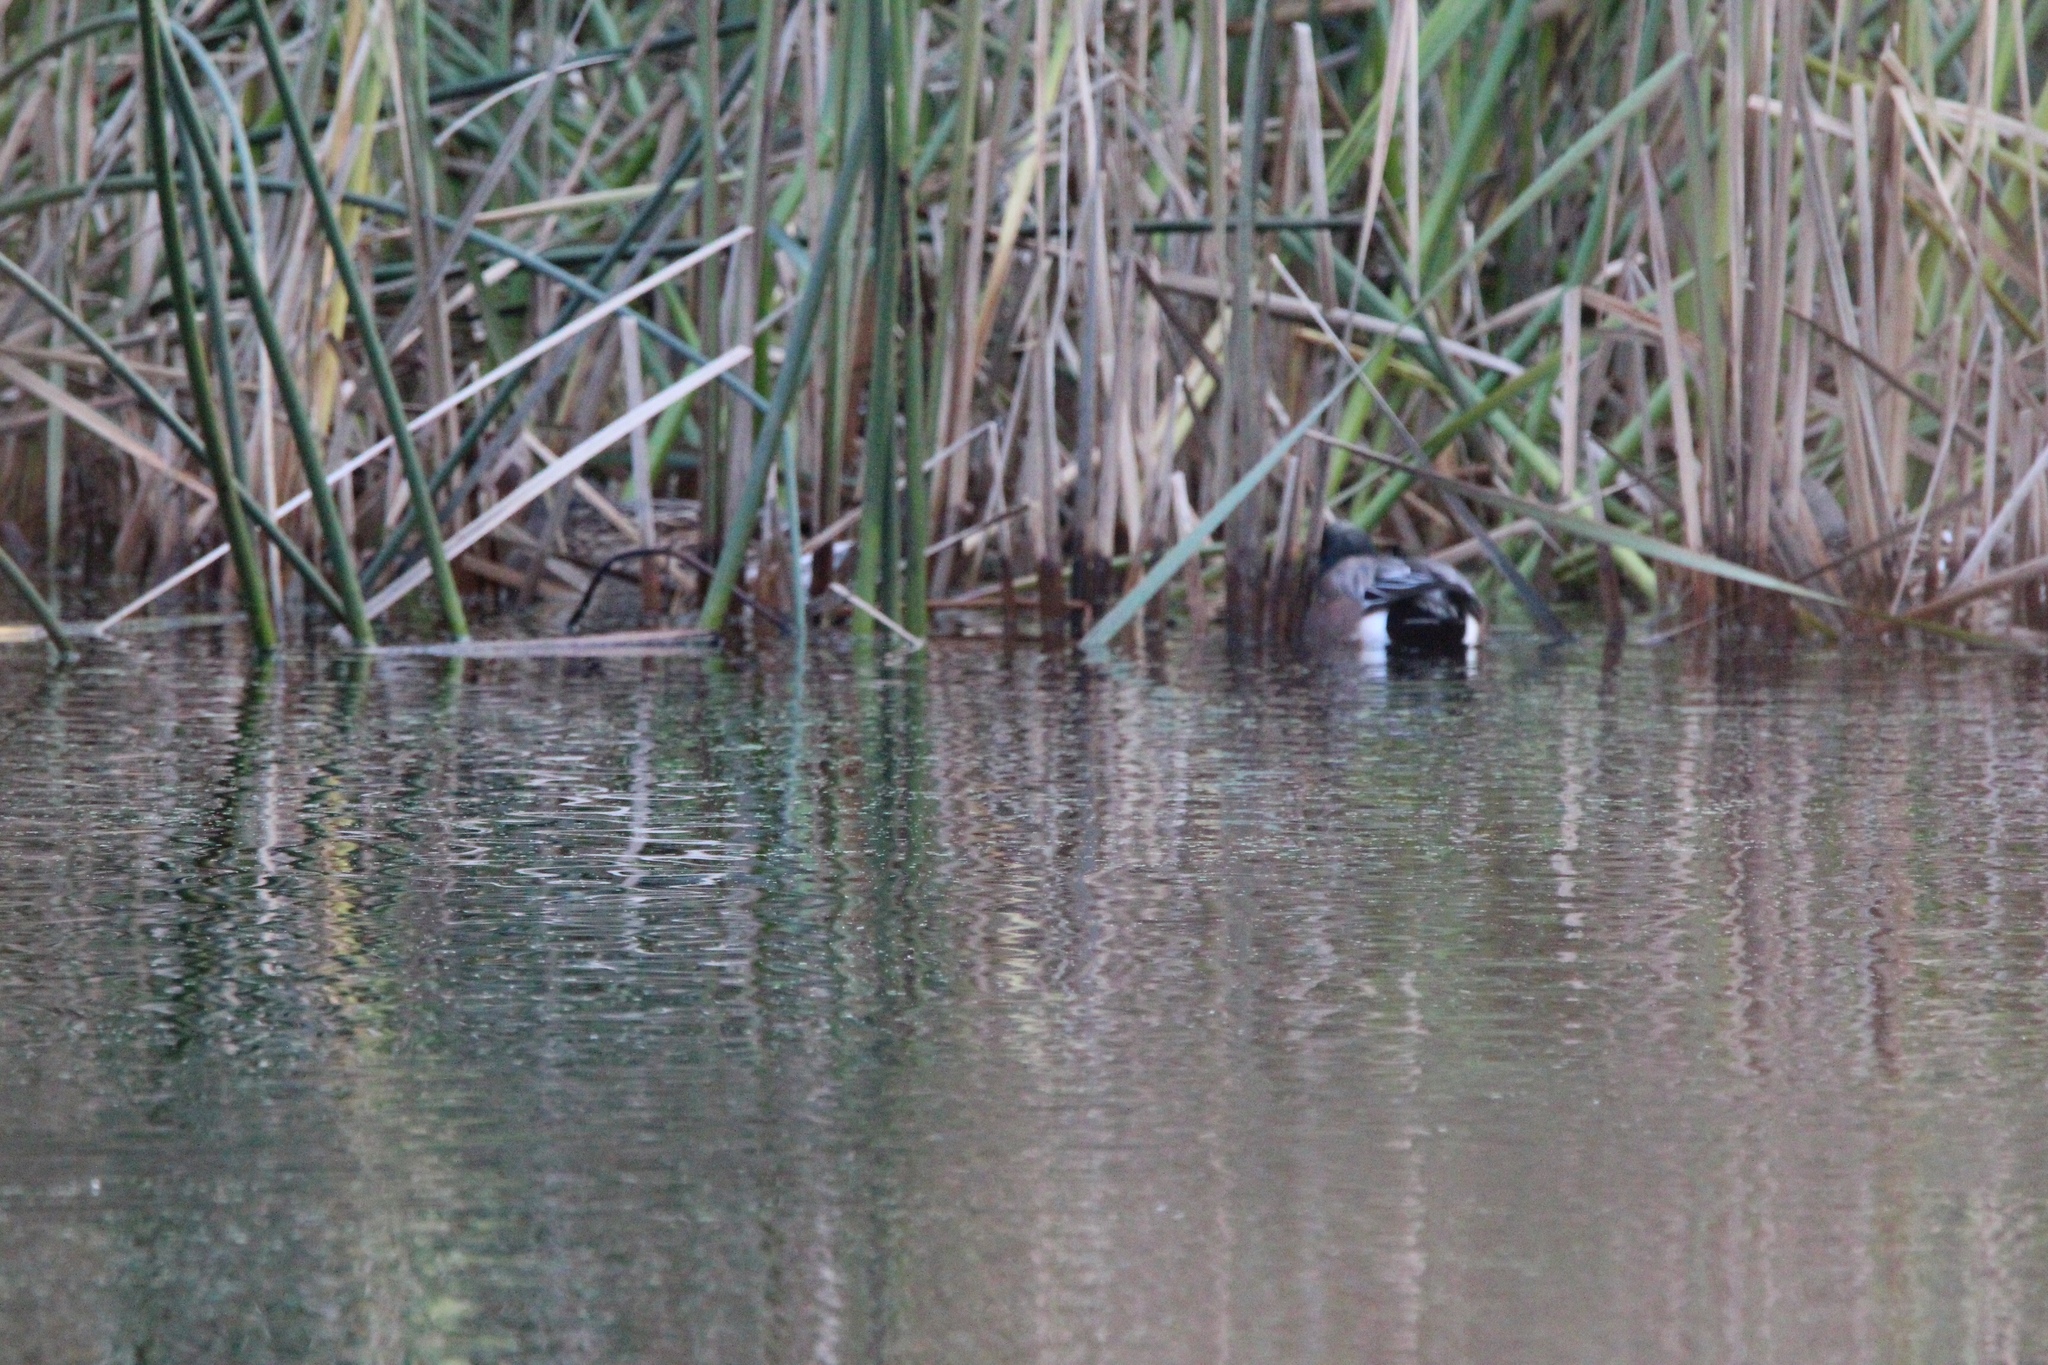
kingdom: Animalia
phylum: Chordata
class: Aves
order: Anseriformes
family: Anatidae
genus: Mareca
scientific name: Mareca americana
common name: American wigeon
